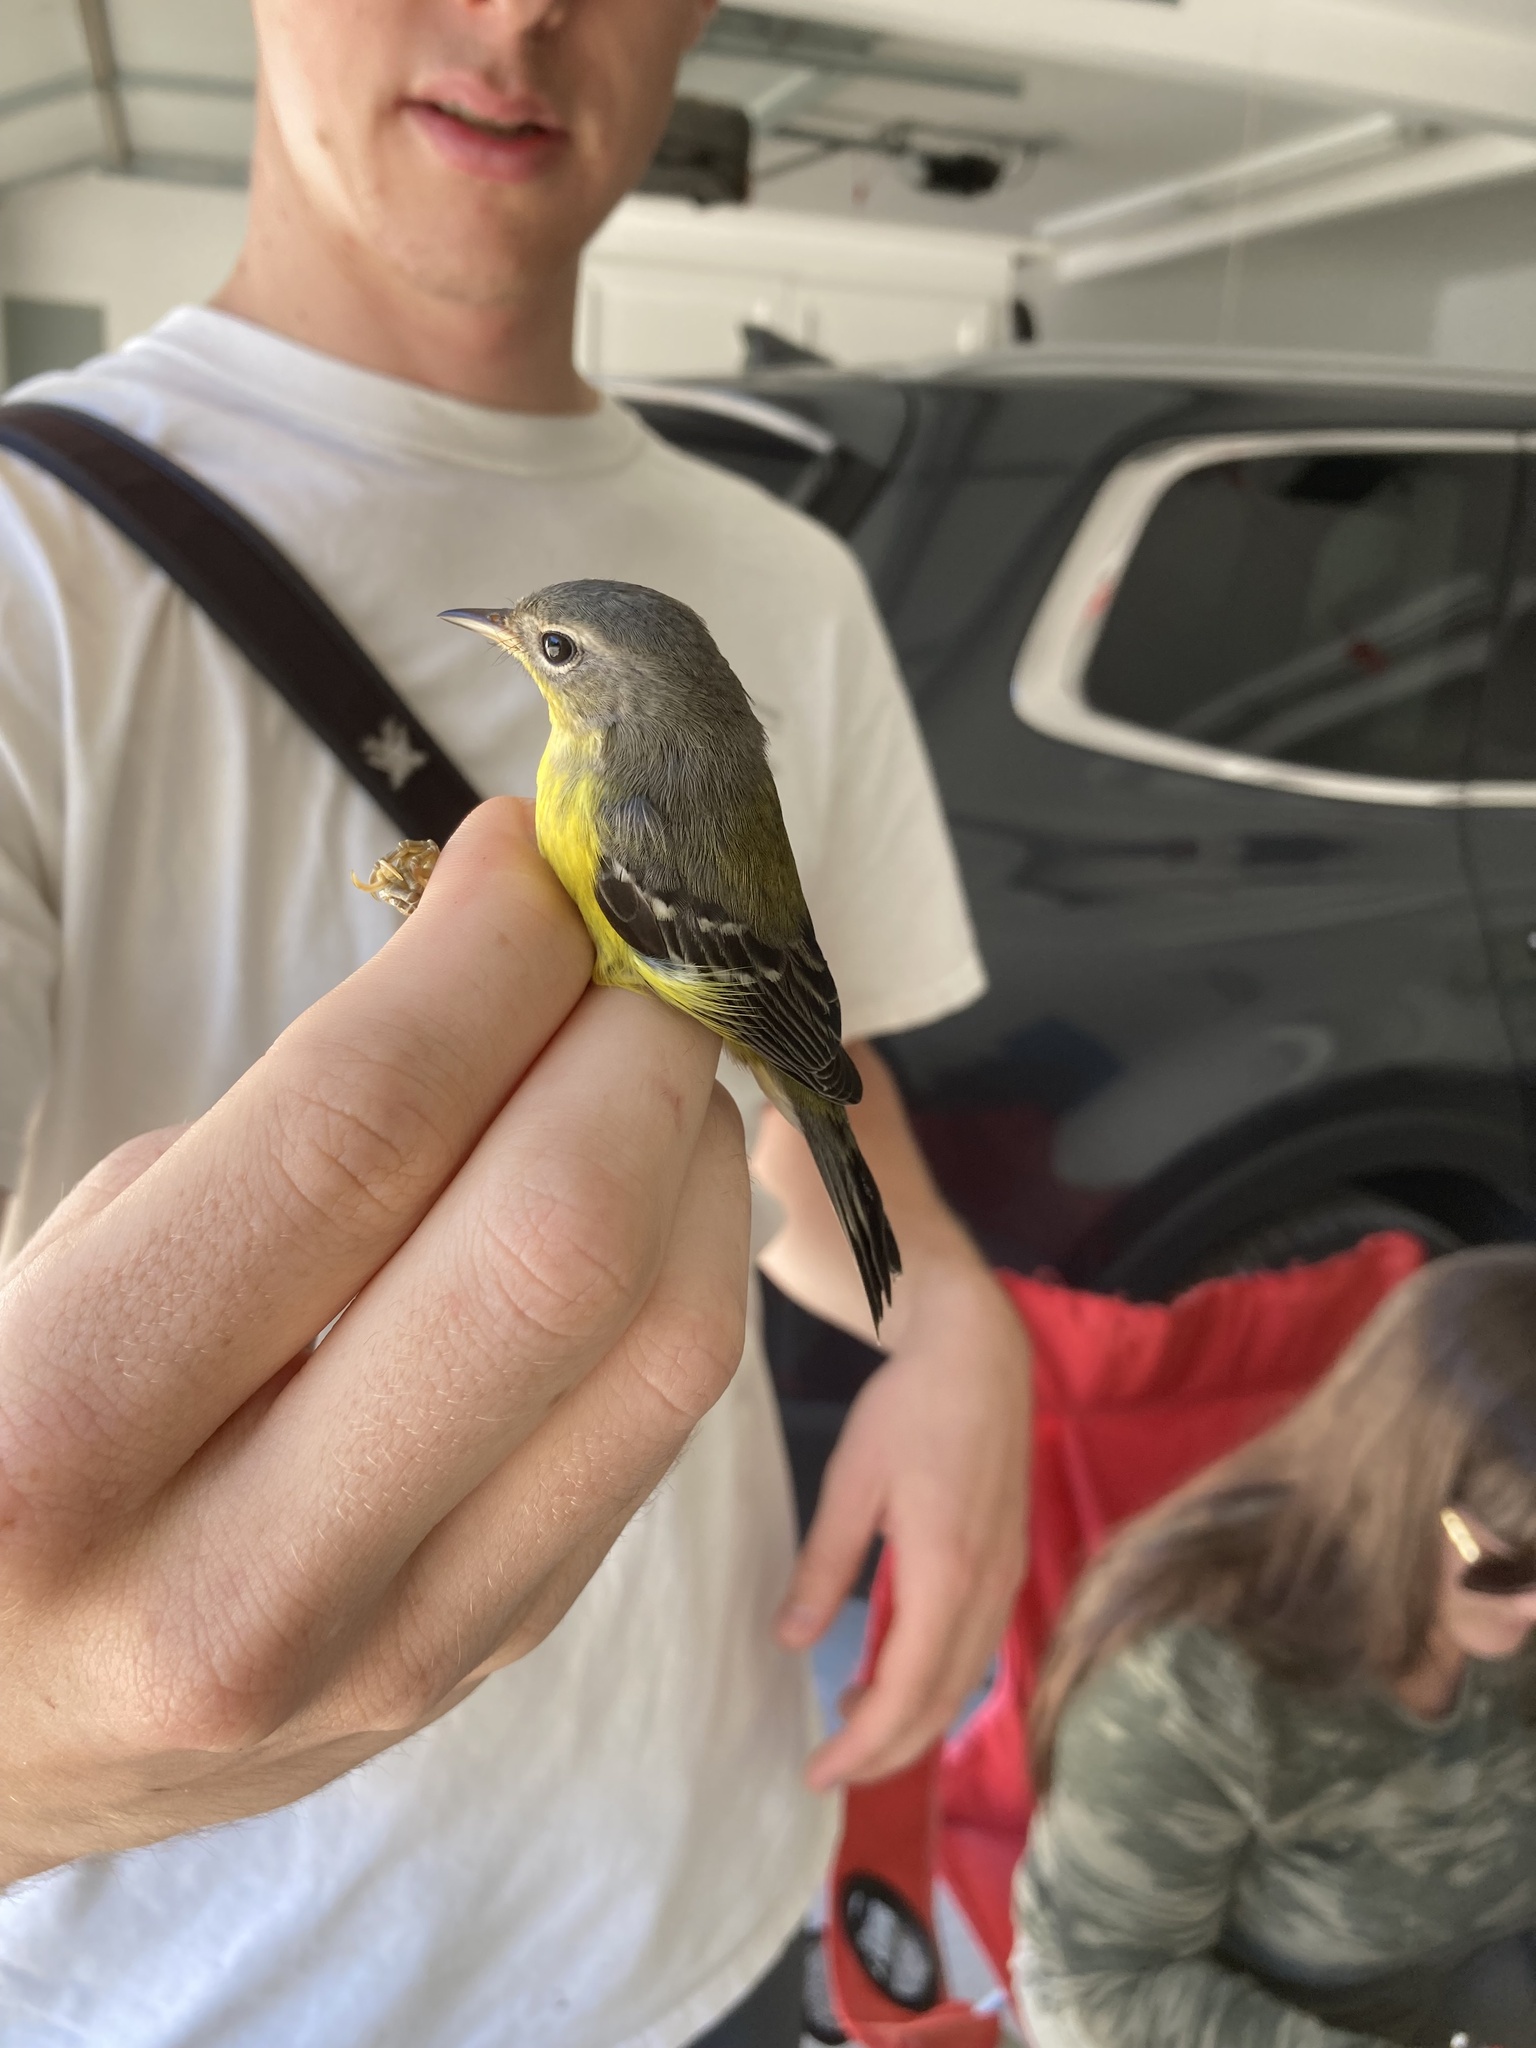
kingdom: Animalia
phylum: Chordata
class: Aves
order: Passeriformes
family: Parulidae
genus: Setophaga
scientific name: Setophaga magnolia
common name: Magnolia warbler
